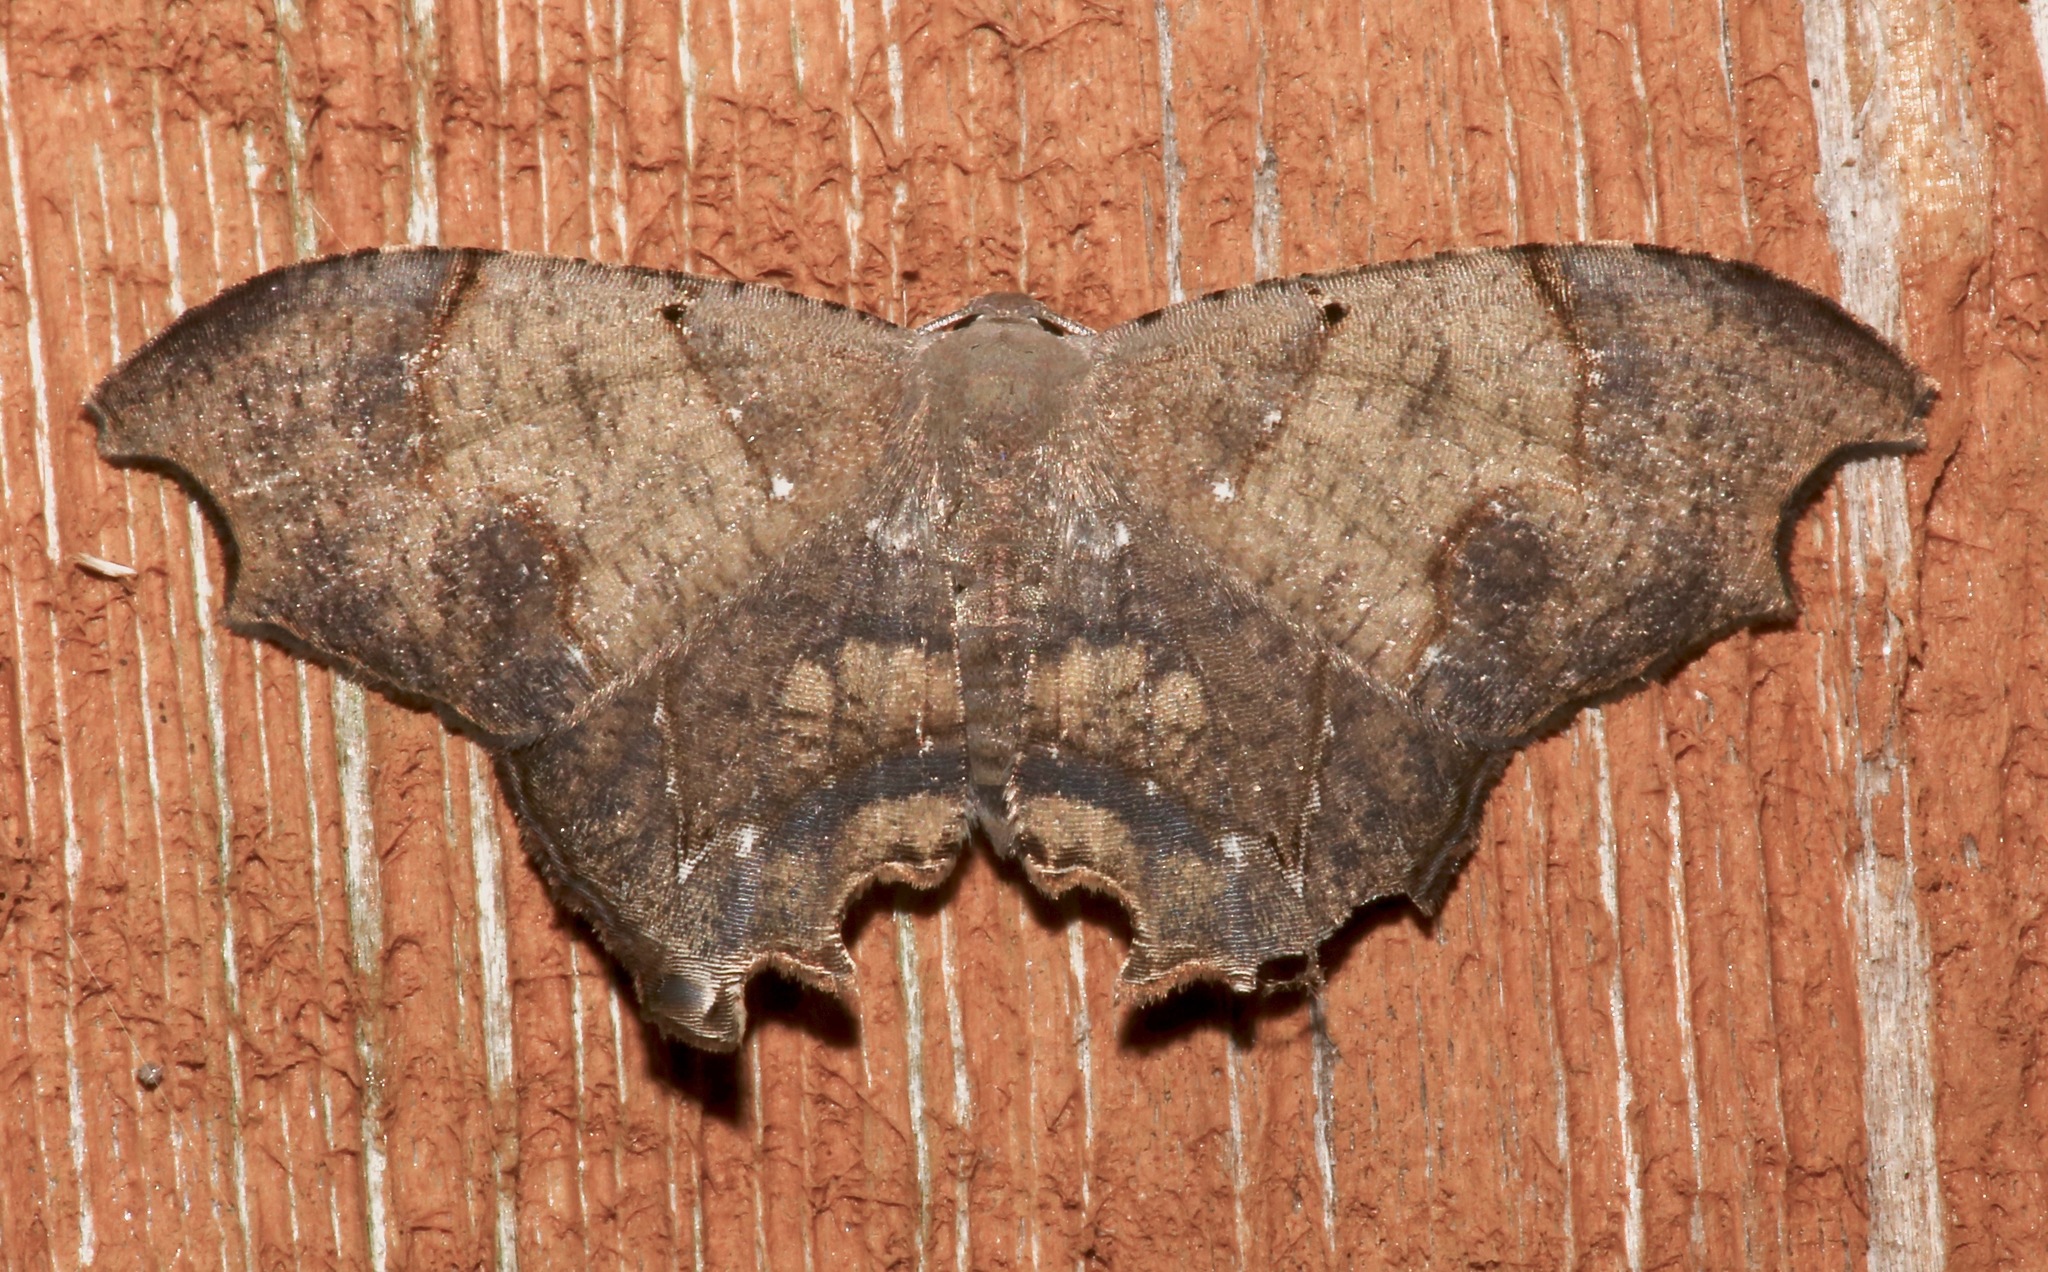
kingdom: Animalia
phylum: Arthropoda
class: Insecta
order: Lepidoptera
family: Uraniidae
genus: Trotorhombia
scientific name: Trotorhombia metachromata
